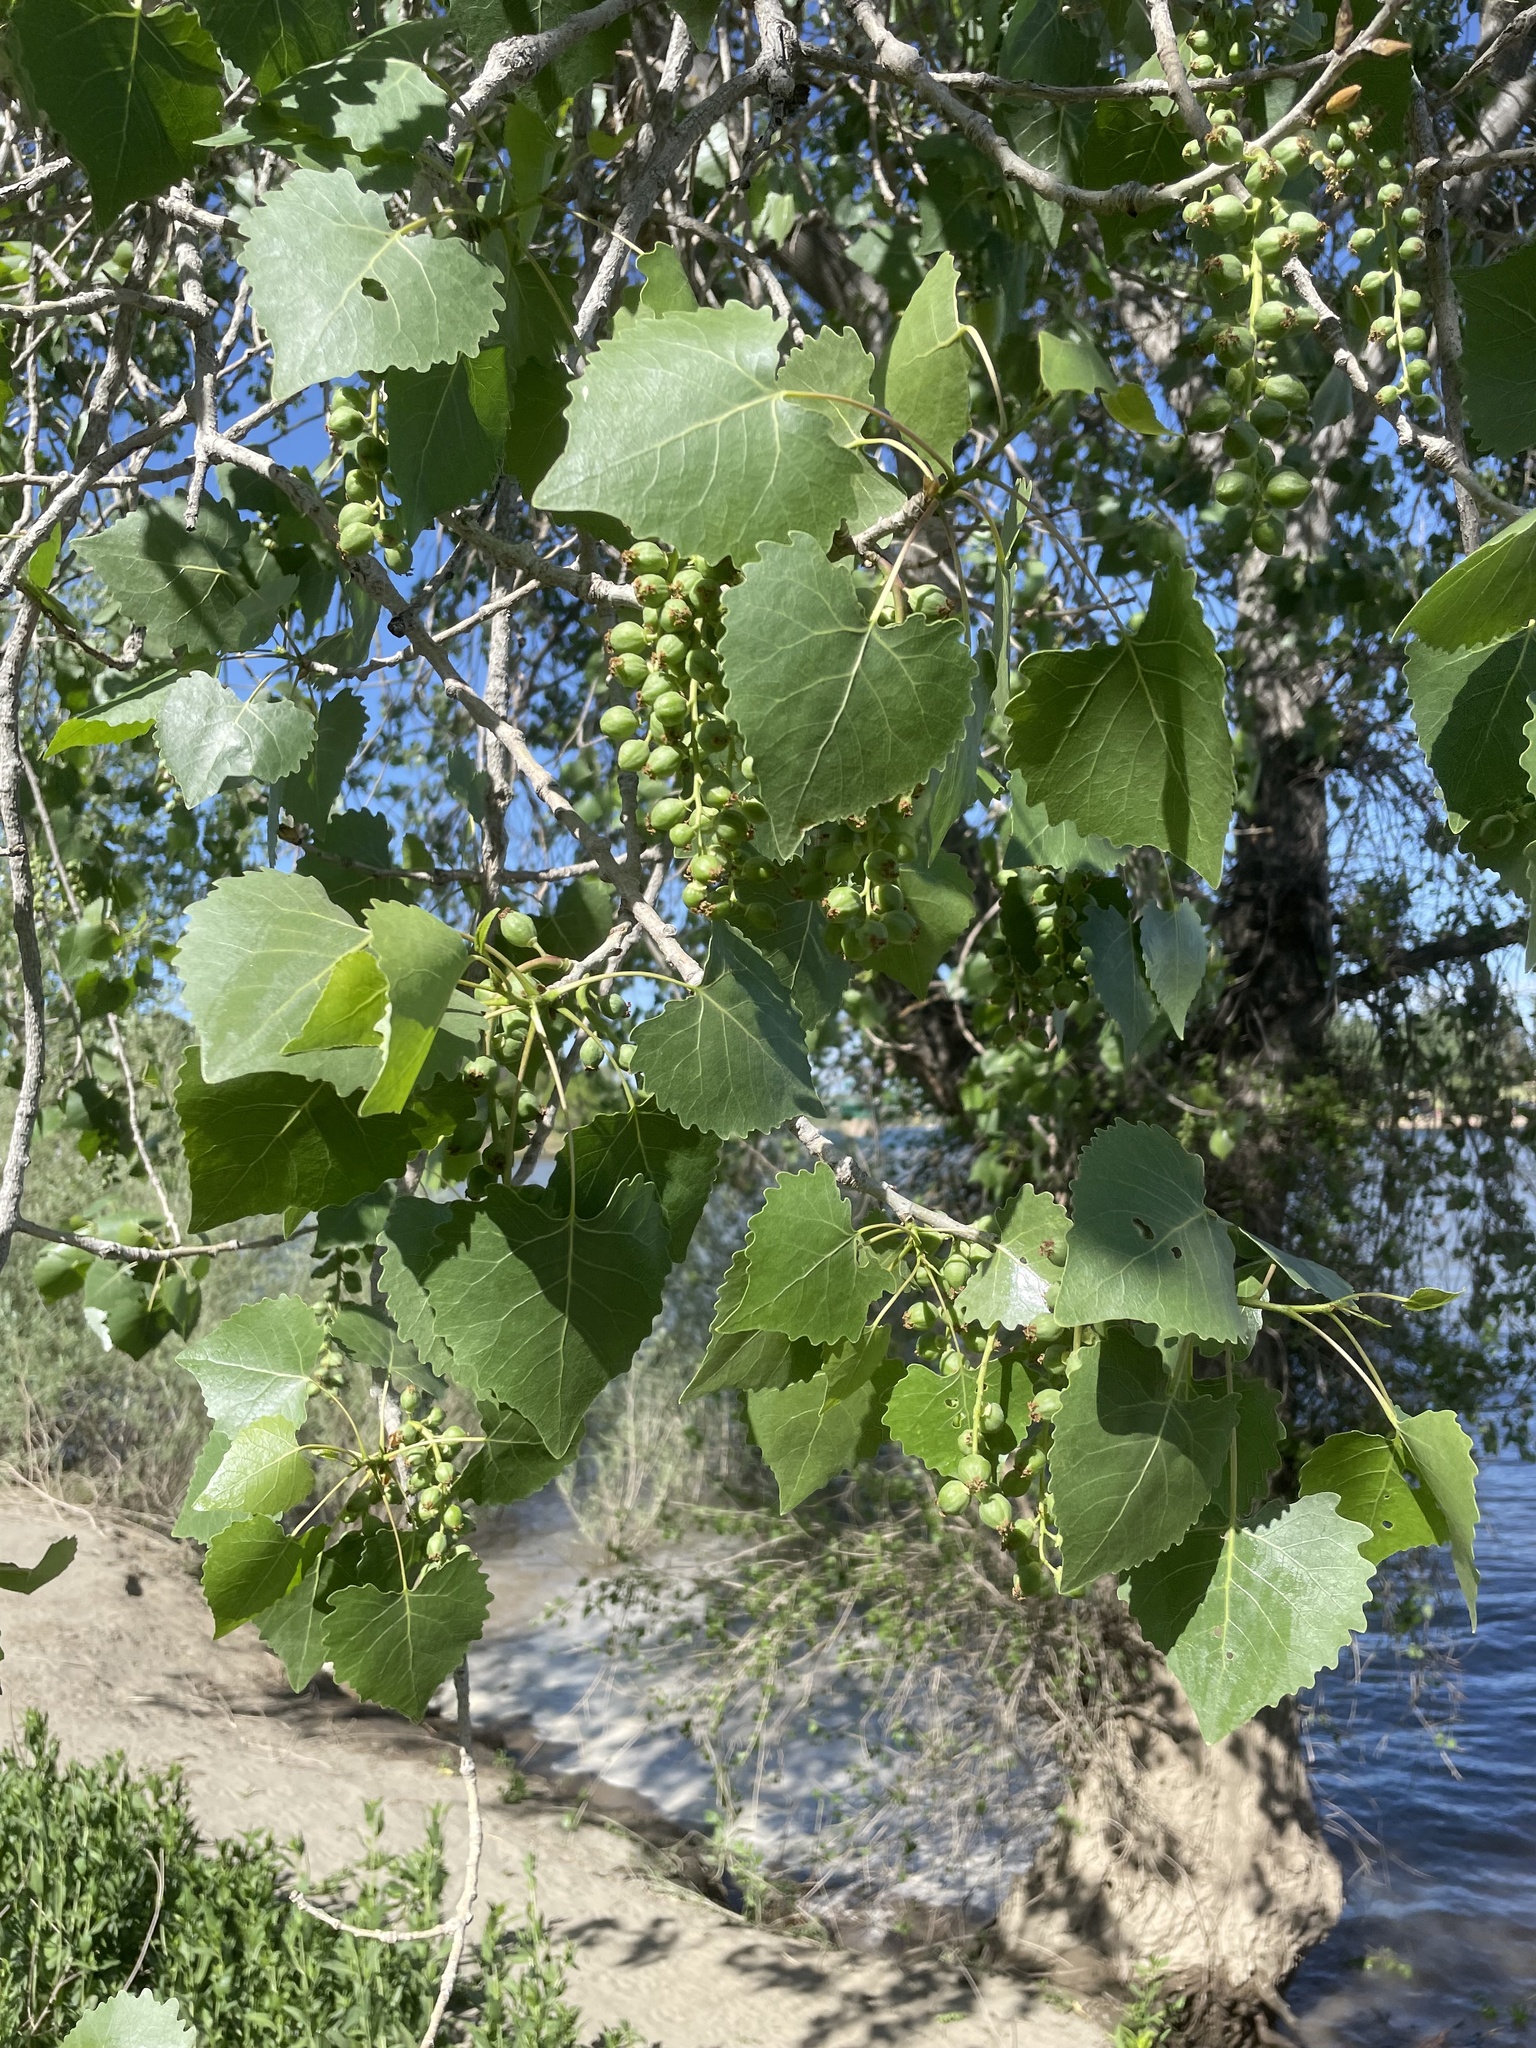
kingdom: Plantae
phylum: Tracheophyta
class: Magnoliopsida
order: Malpighiales
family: Salicaceae
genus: Populus
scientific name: Populus fremontii
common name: Fremont's cottonwood
